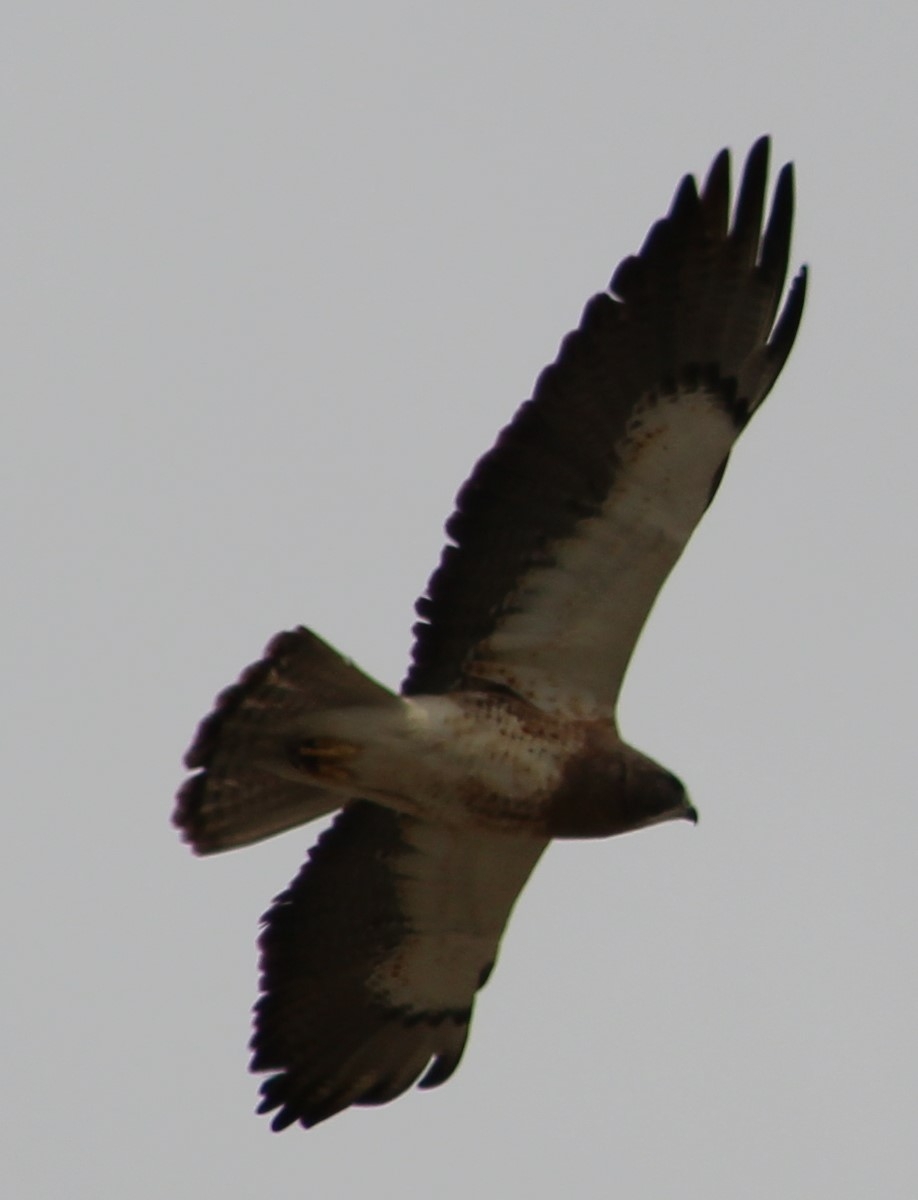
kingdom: Animalia
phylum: Chordata
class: Aves
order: Accipitriformes
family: Accipitridae
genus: Buteo
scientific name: Buteo swainsoni
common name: Swainson's hawk
